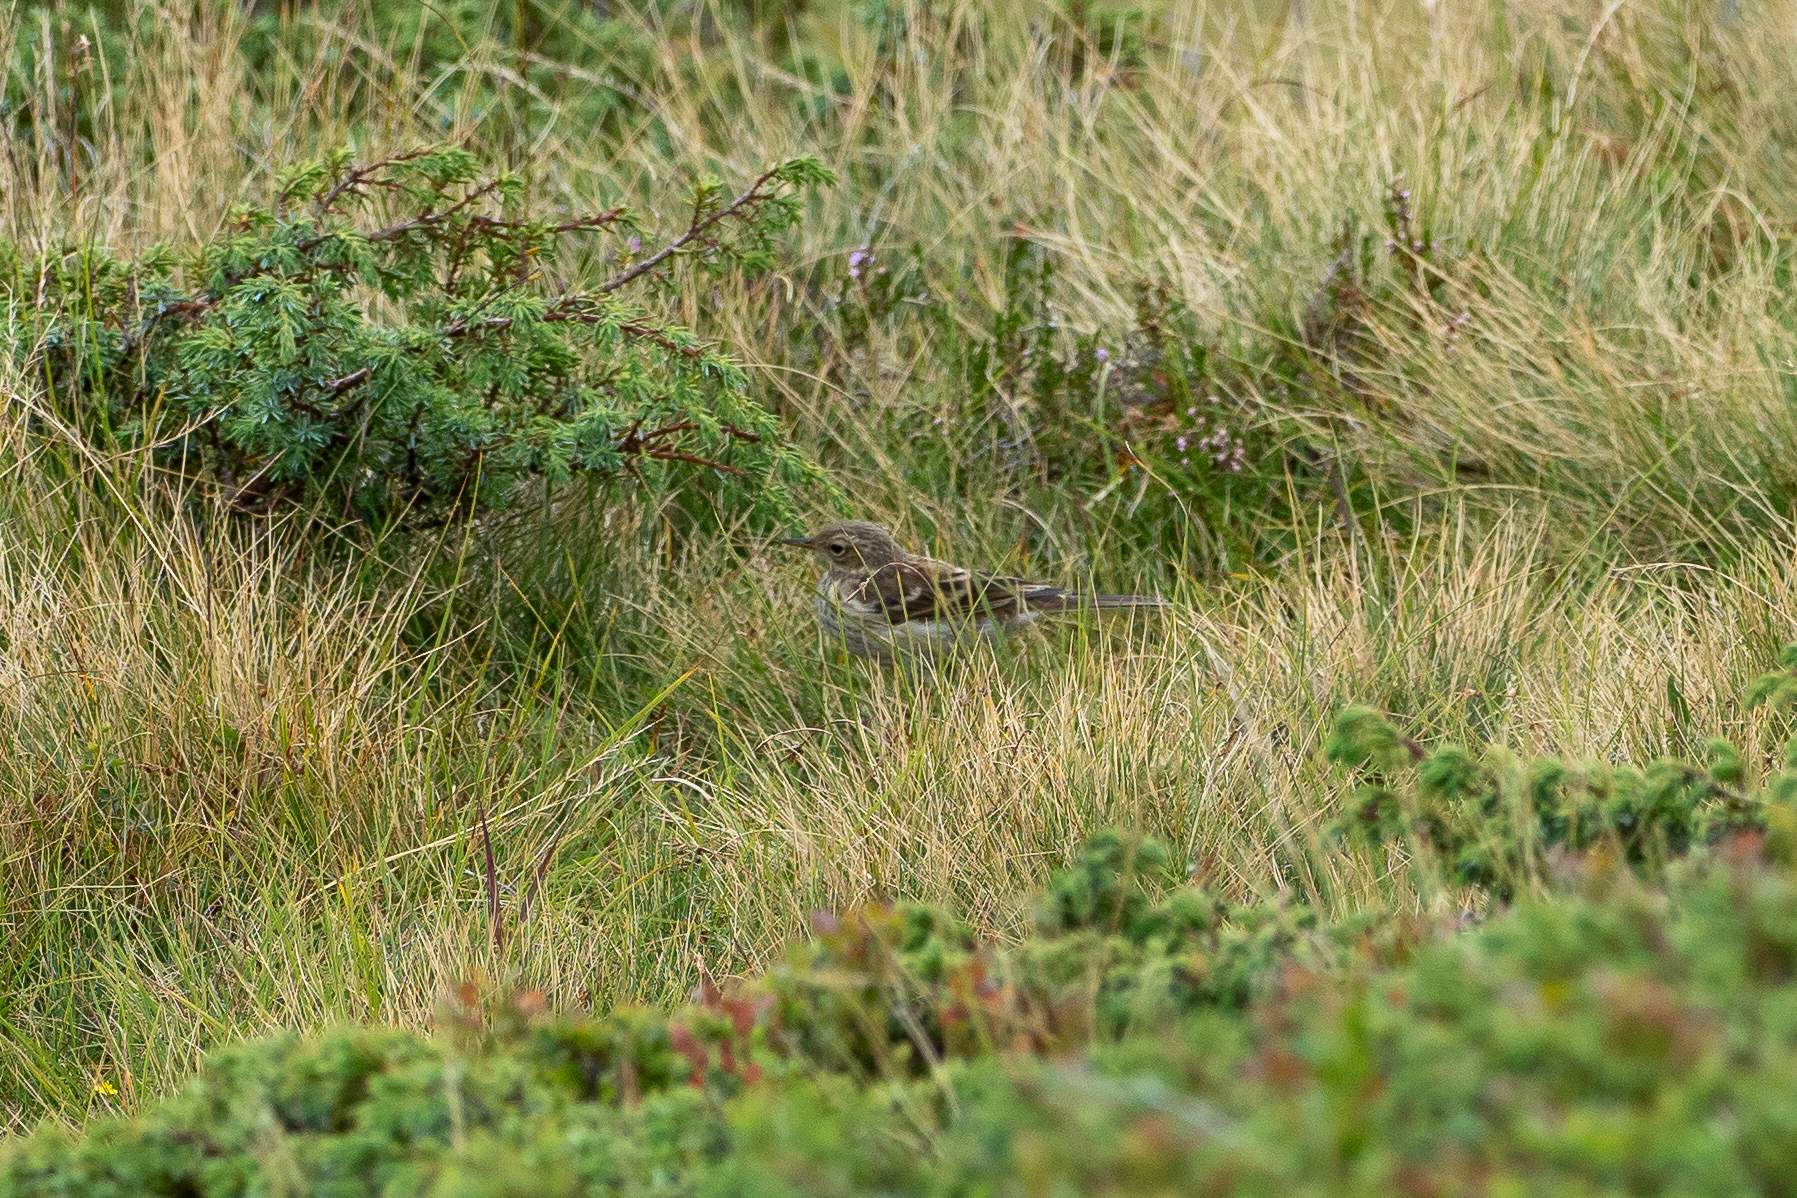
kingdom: Animalia
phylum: Chordata
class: Aves
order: Passeriformes
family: Motacillidae
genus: Anthus
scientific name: Anthus spinoletta
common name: Water pipit
